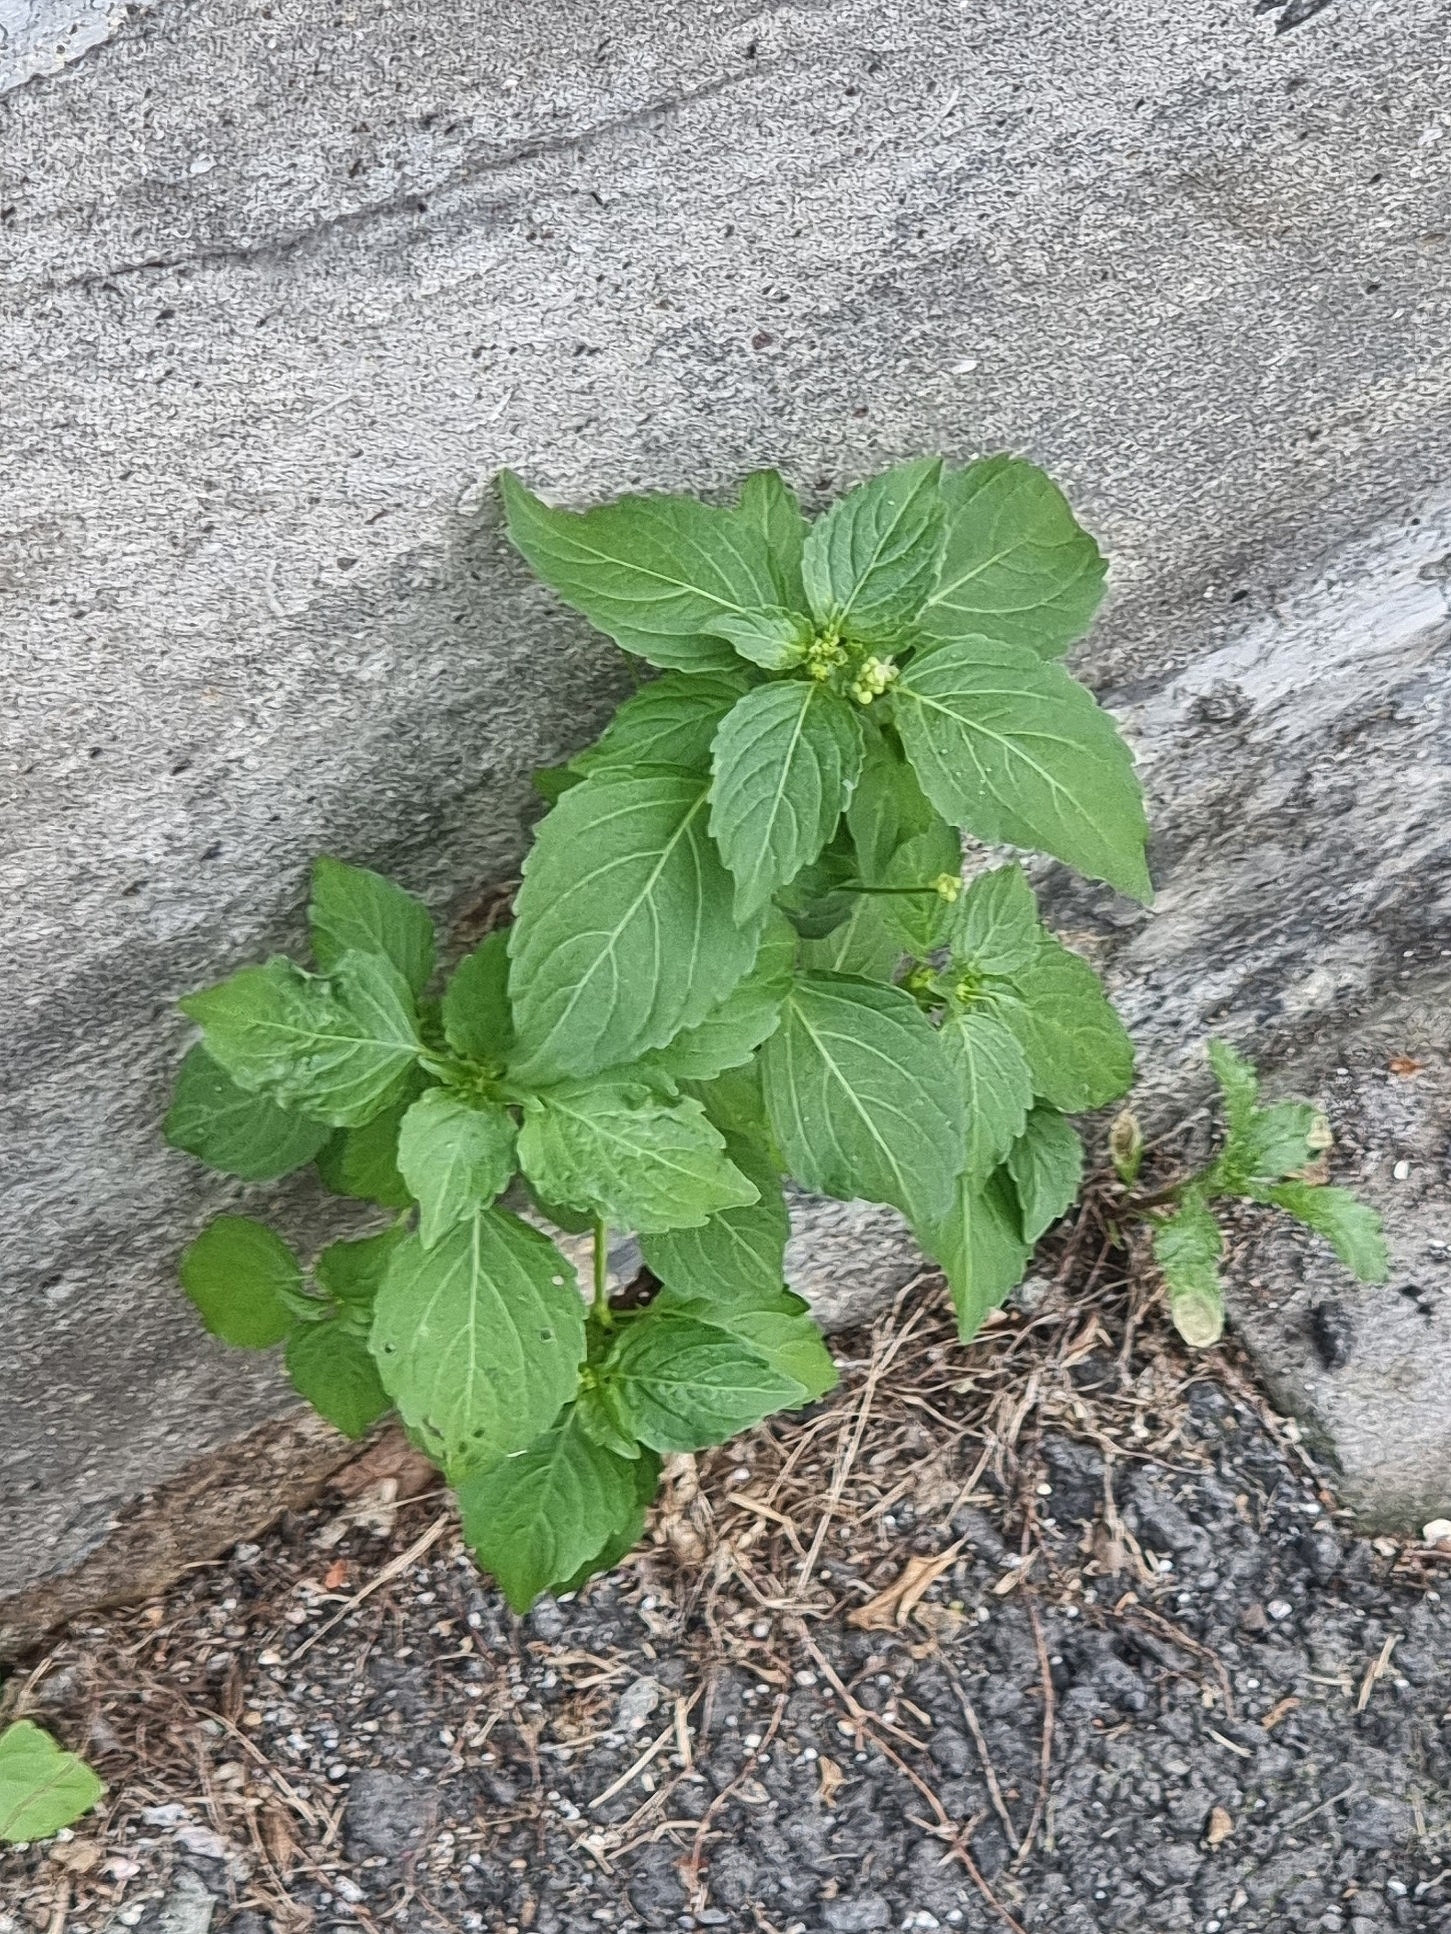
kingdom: Plantae
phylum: Tracheophyta
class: Magnoliopsida
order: Malpighiales
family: Euphorbiaceae
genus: Mercurialis
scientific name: Mercurialis annua
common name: Annual mercury
